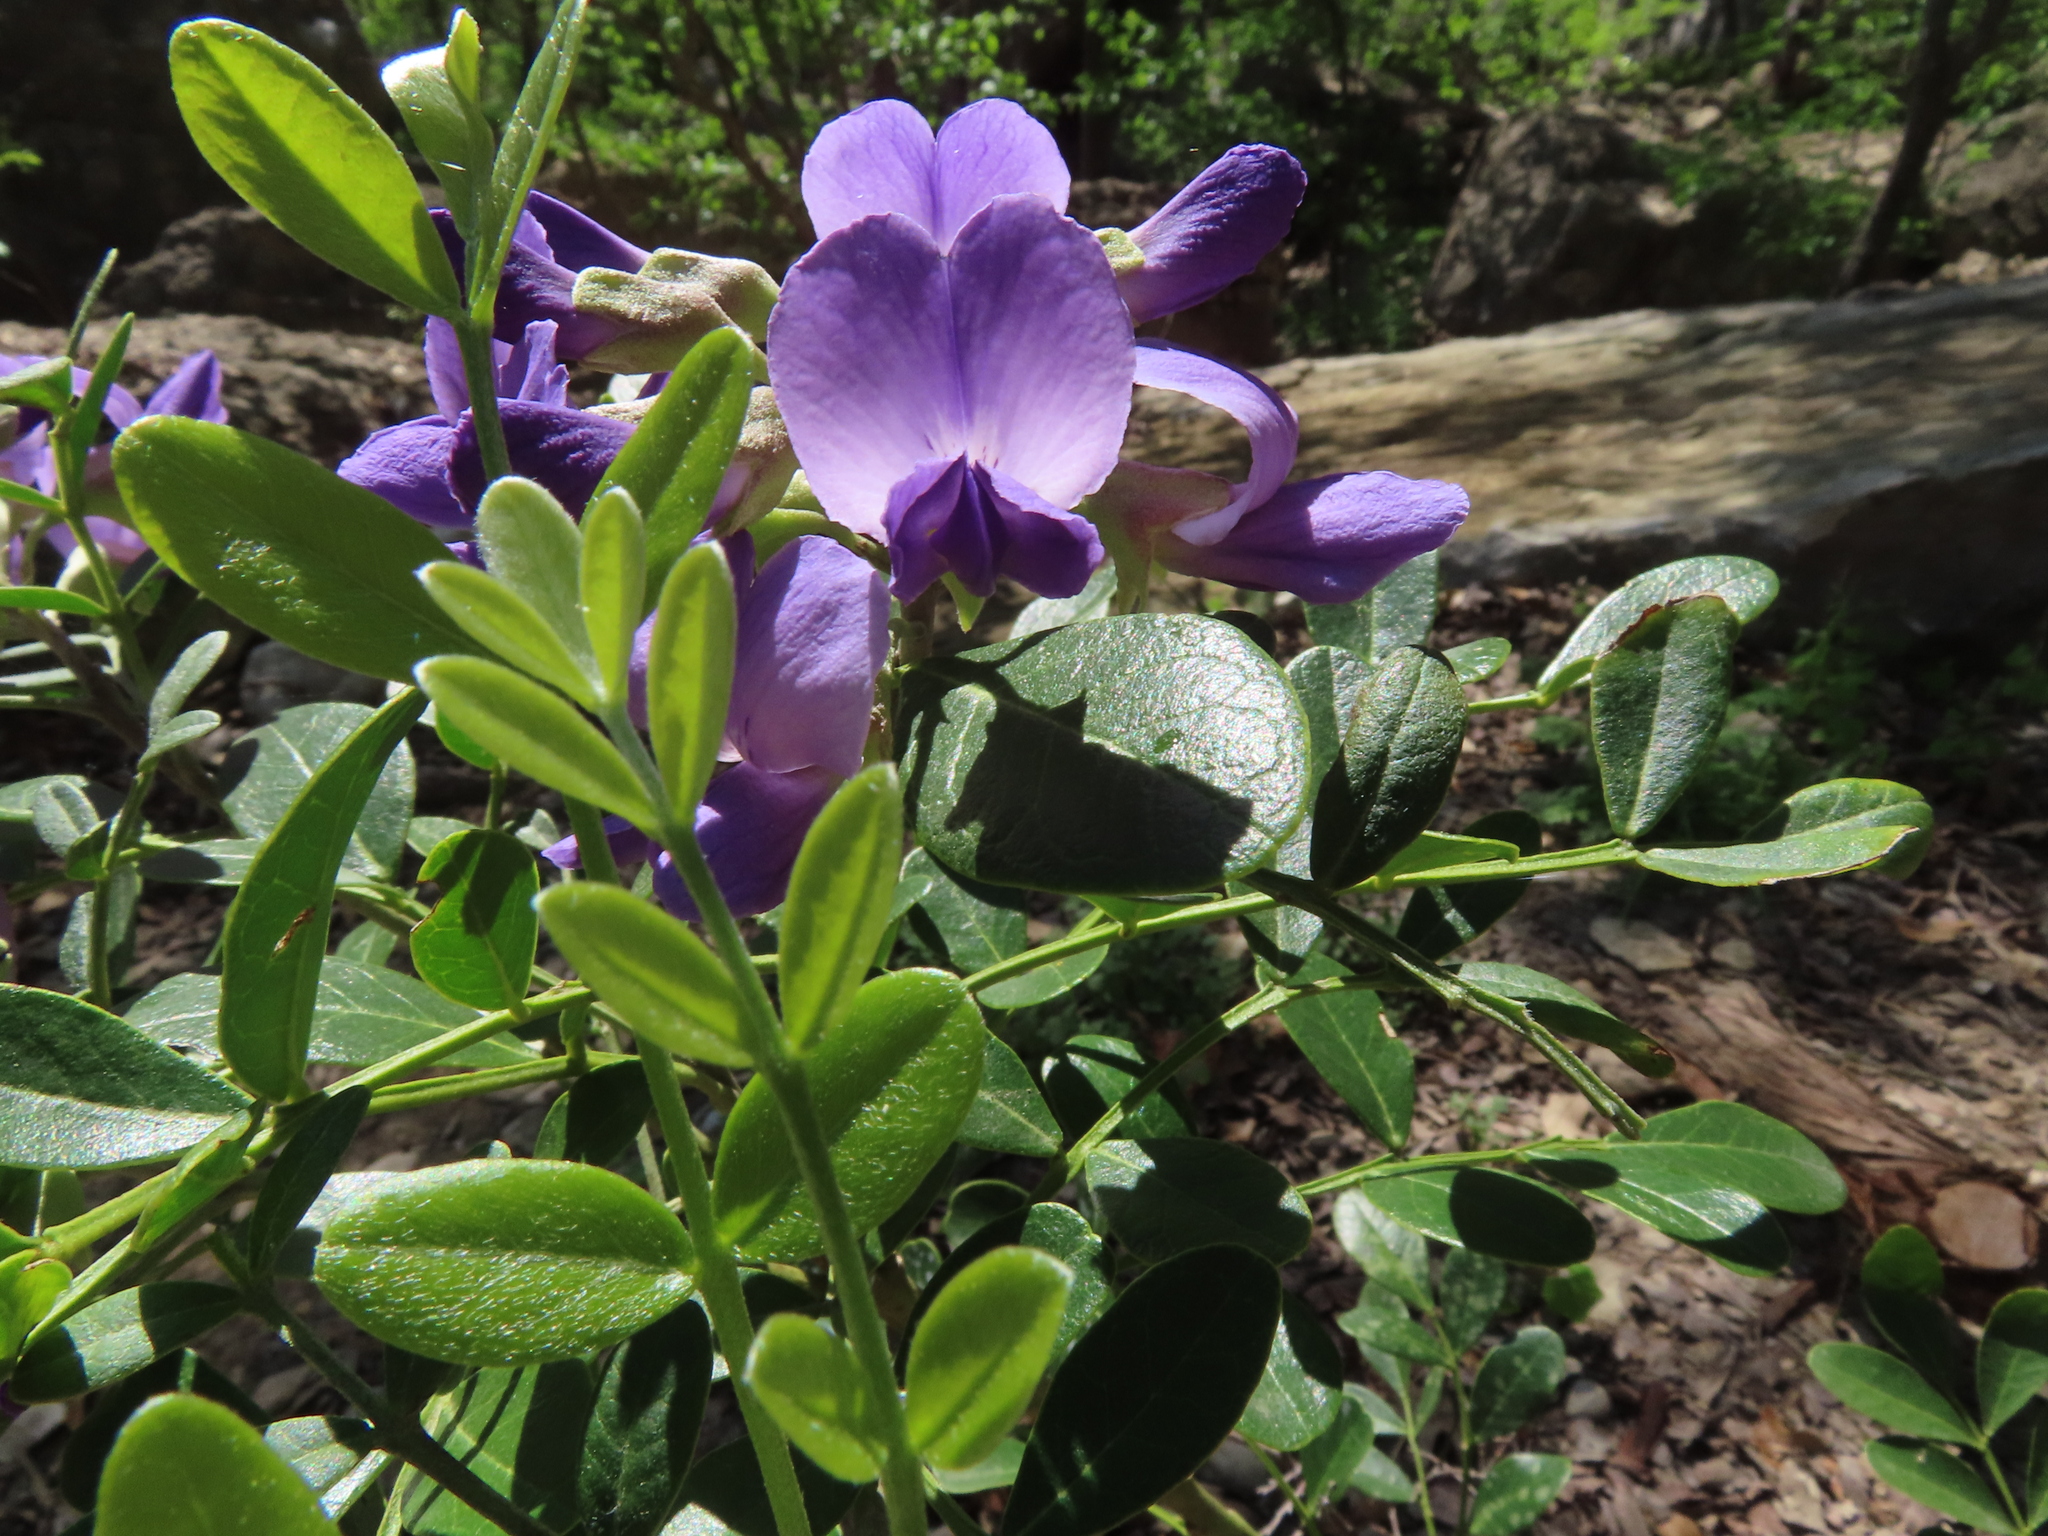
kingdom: Plantae
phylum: Tracheophyta
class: Magnoliopsida
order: Fabales
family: Fabaceae
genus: Dermatophyllum
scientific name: Dermatophyllum secundiflorum
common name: Texas-mountain-laurel
